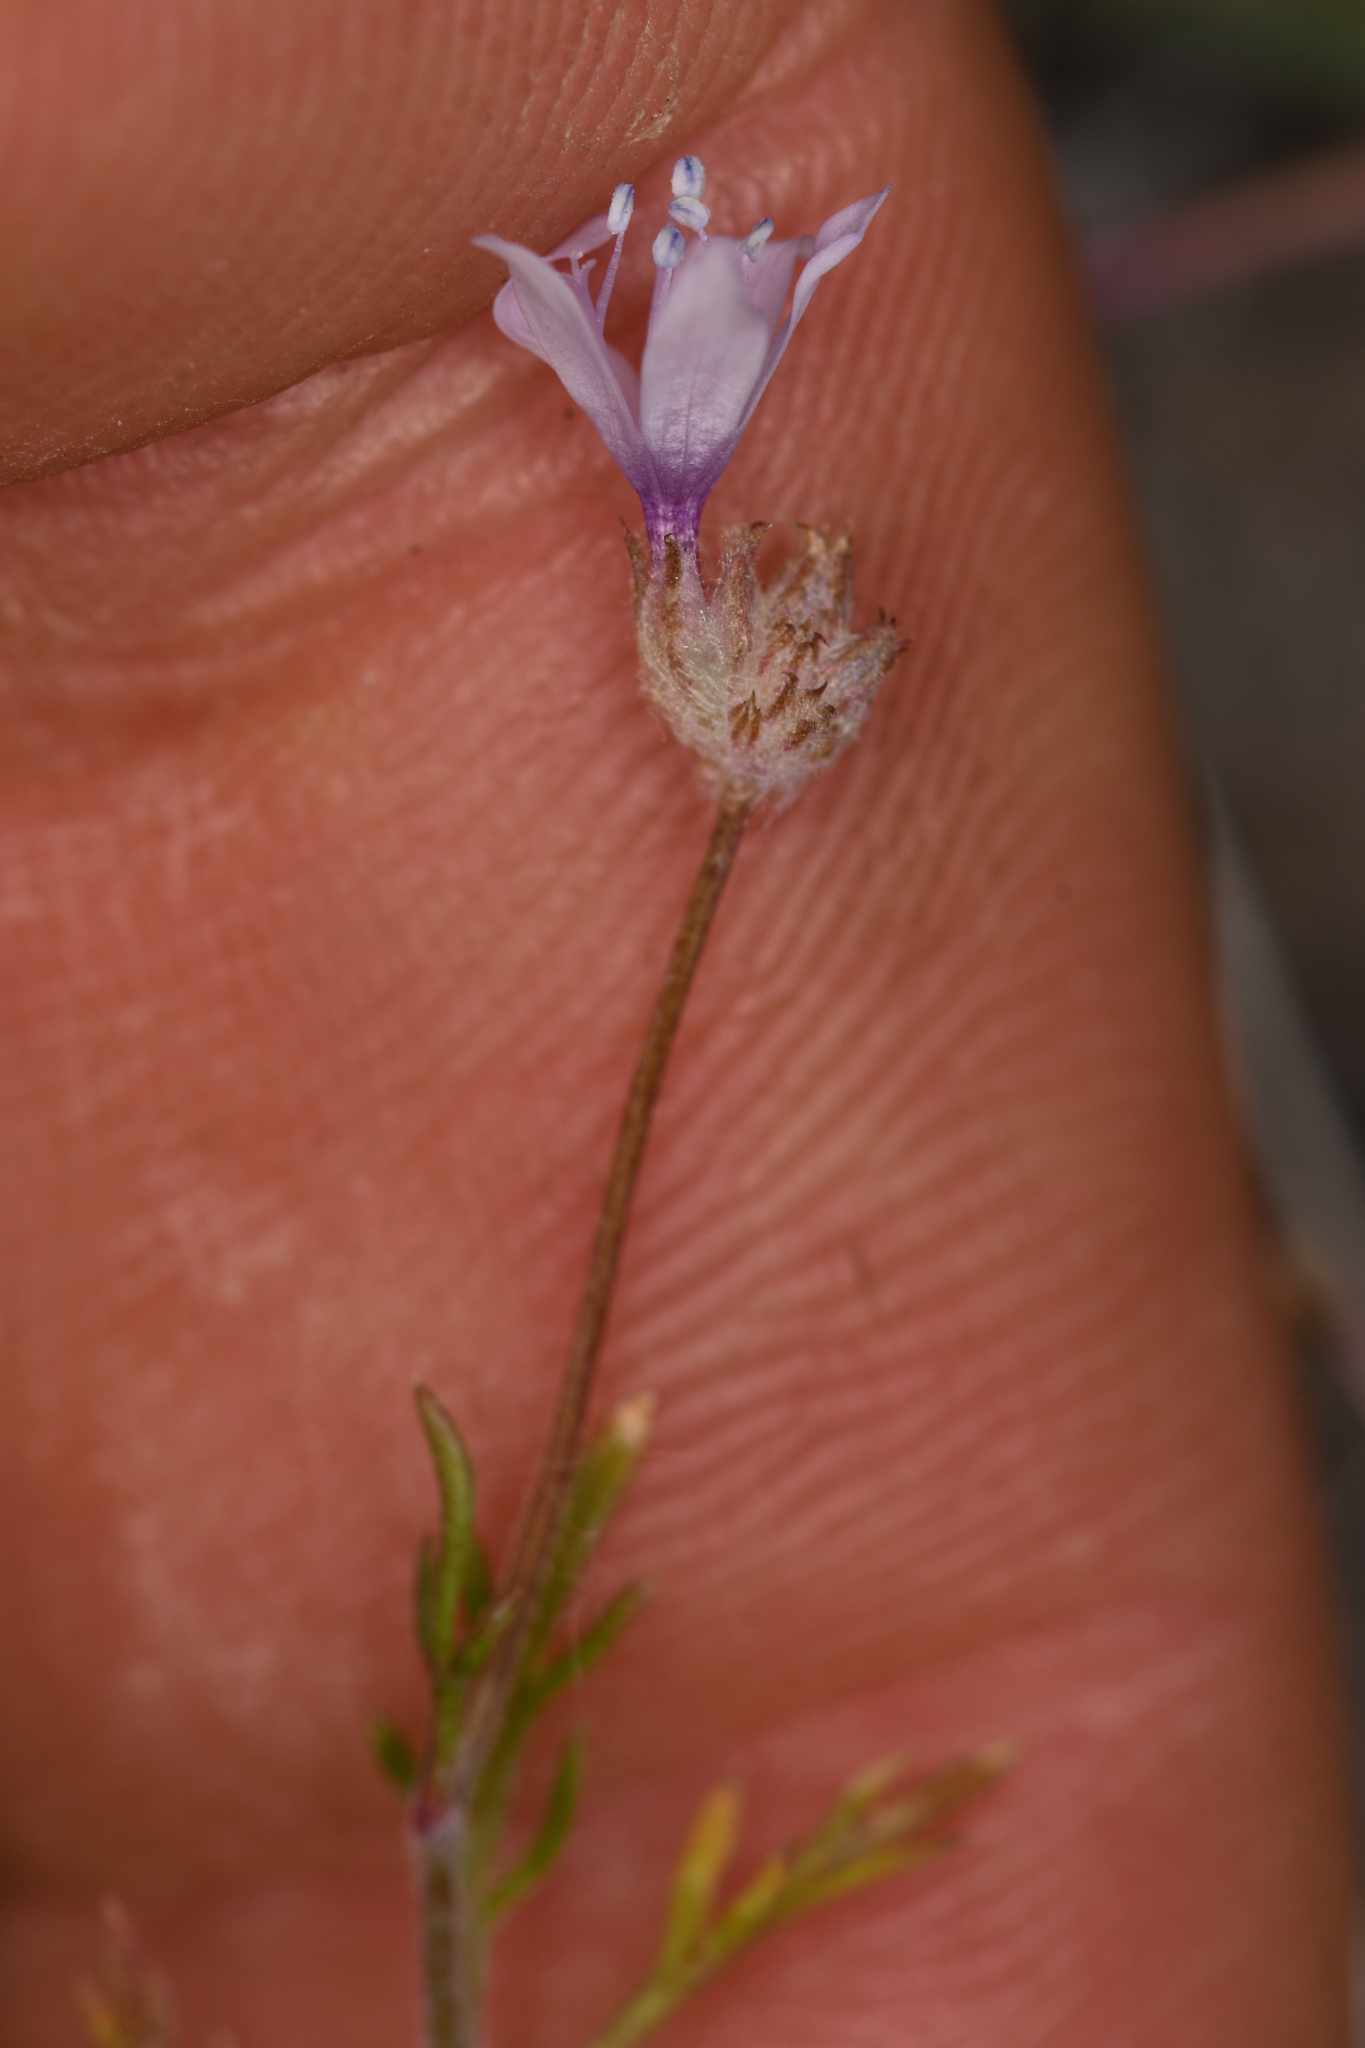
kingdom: Plantae
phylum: Tracheophyta
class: Magnoliopsida
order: Ericales
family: Polemoniaceae
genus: Gilia
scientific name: Gilia capitata
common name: Bluehead gilia
